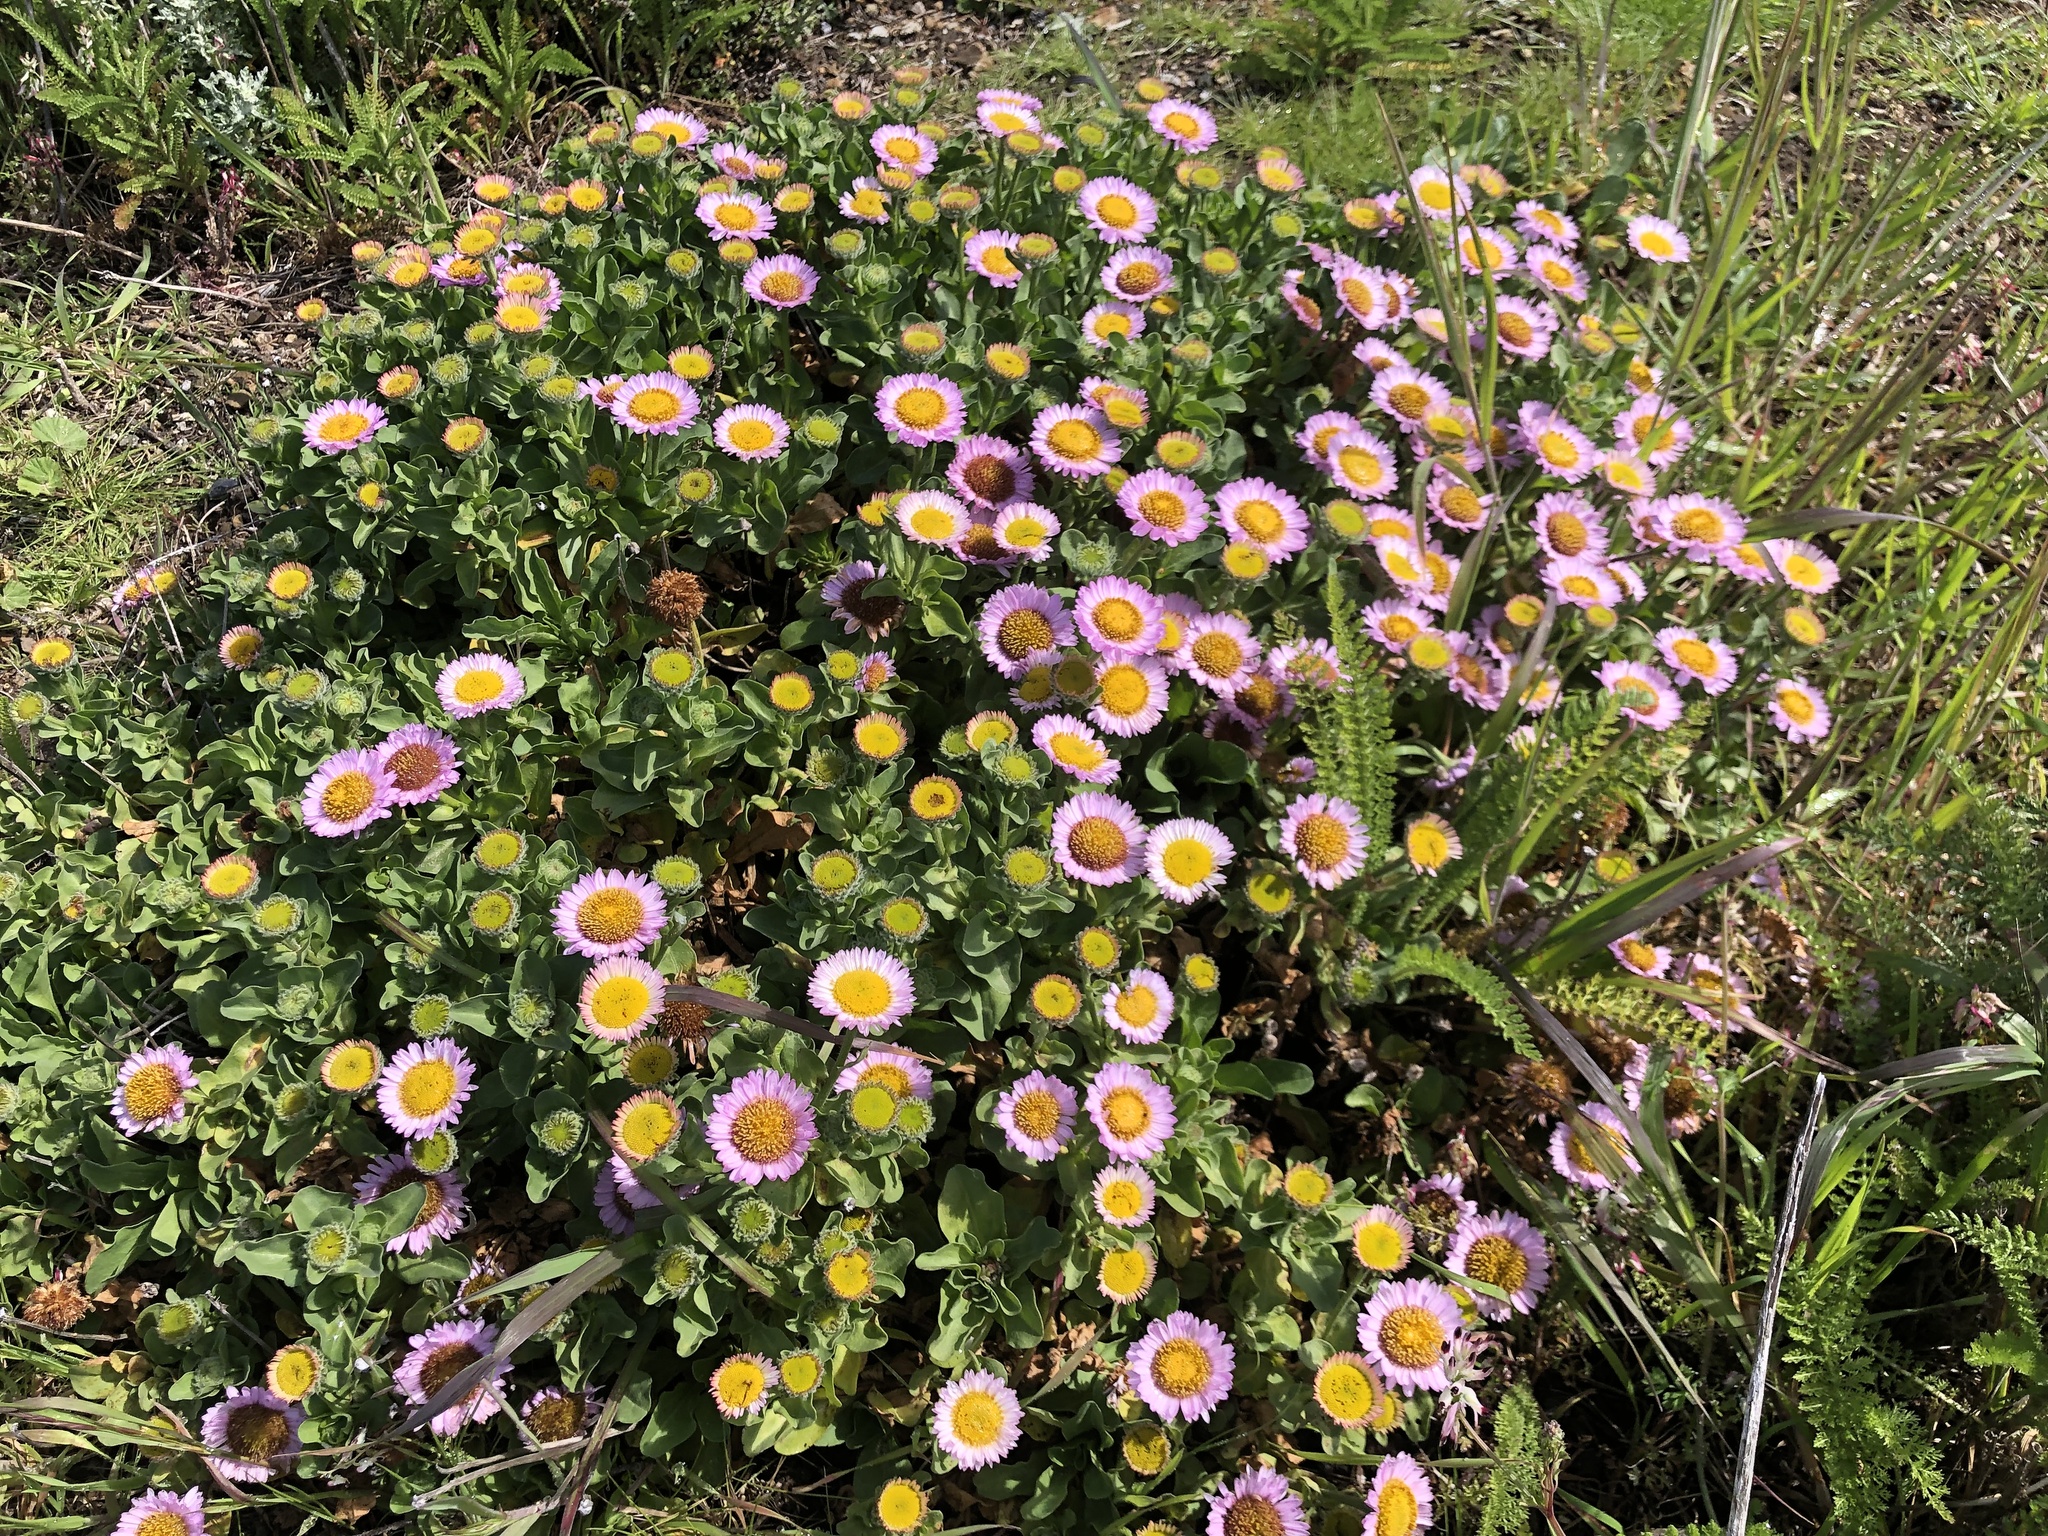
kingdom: Plantae
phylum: Tracheophyta
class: Magnoliopsida
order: Asterales
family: Asteraceae
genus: Erigeron
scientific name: Erigeron glaucus
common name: Seaside daisy
